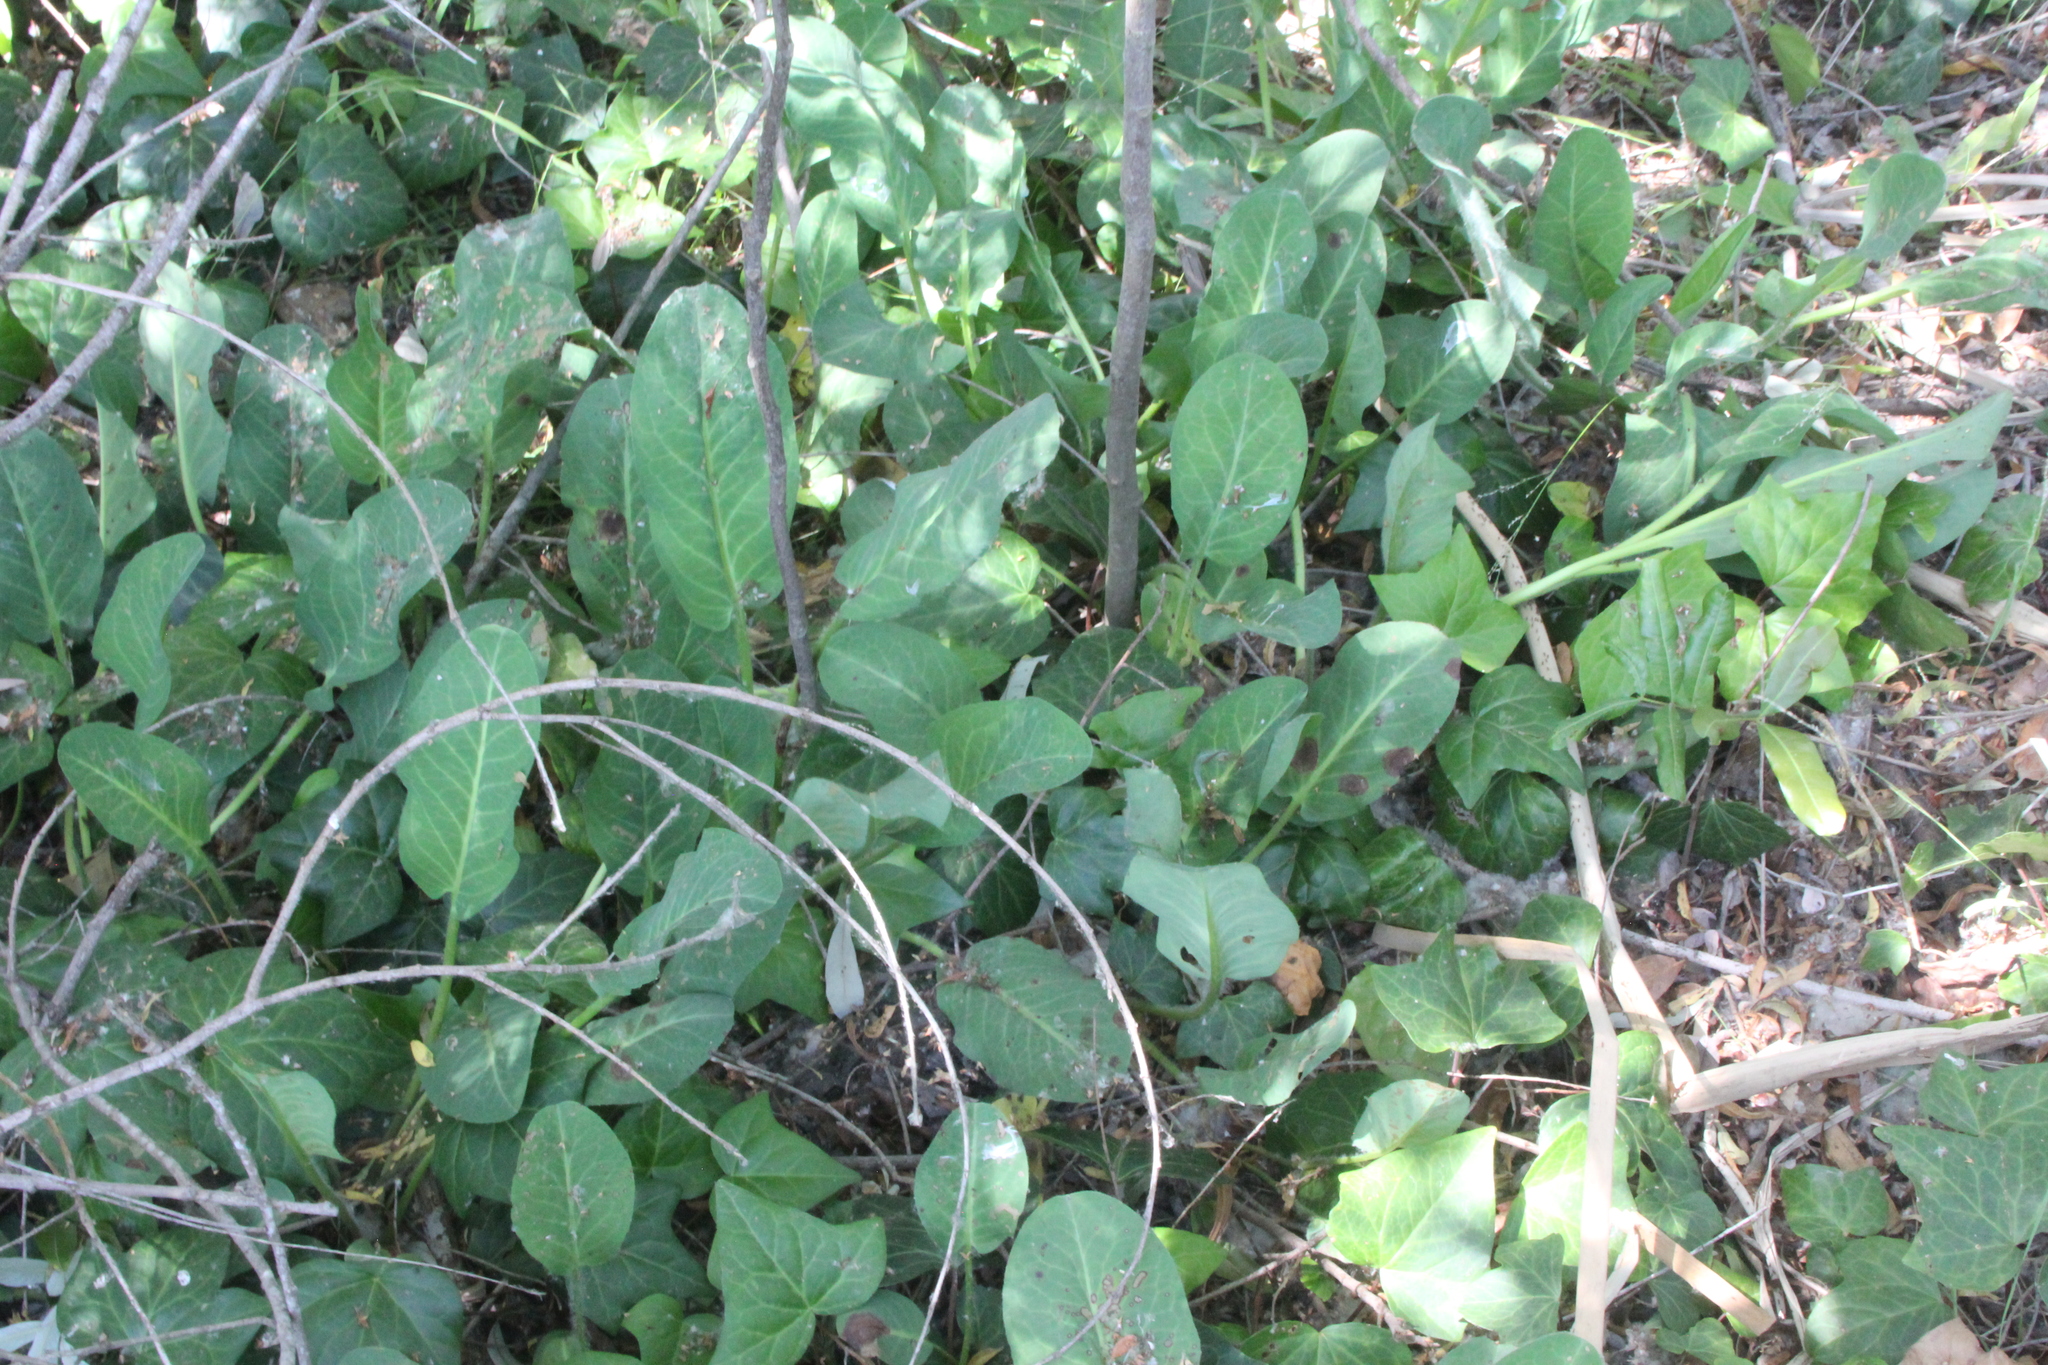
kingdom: Plantae
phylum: Tracheophyta
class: Magnoliopsida
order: Piperales
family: Saururaceae
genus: Anemopsis
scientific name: Anemopsis californica
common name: Apache-beads
